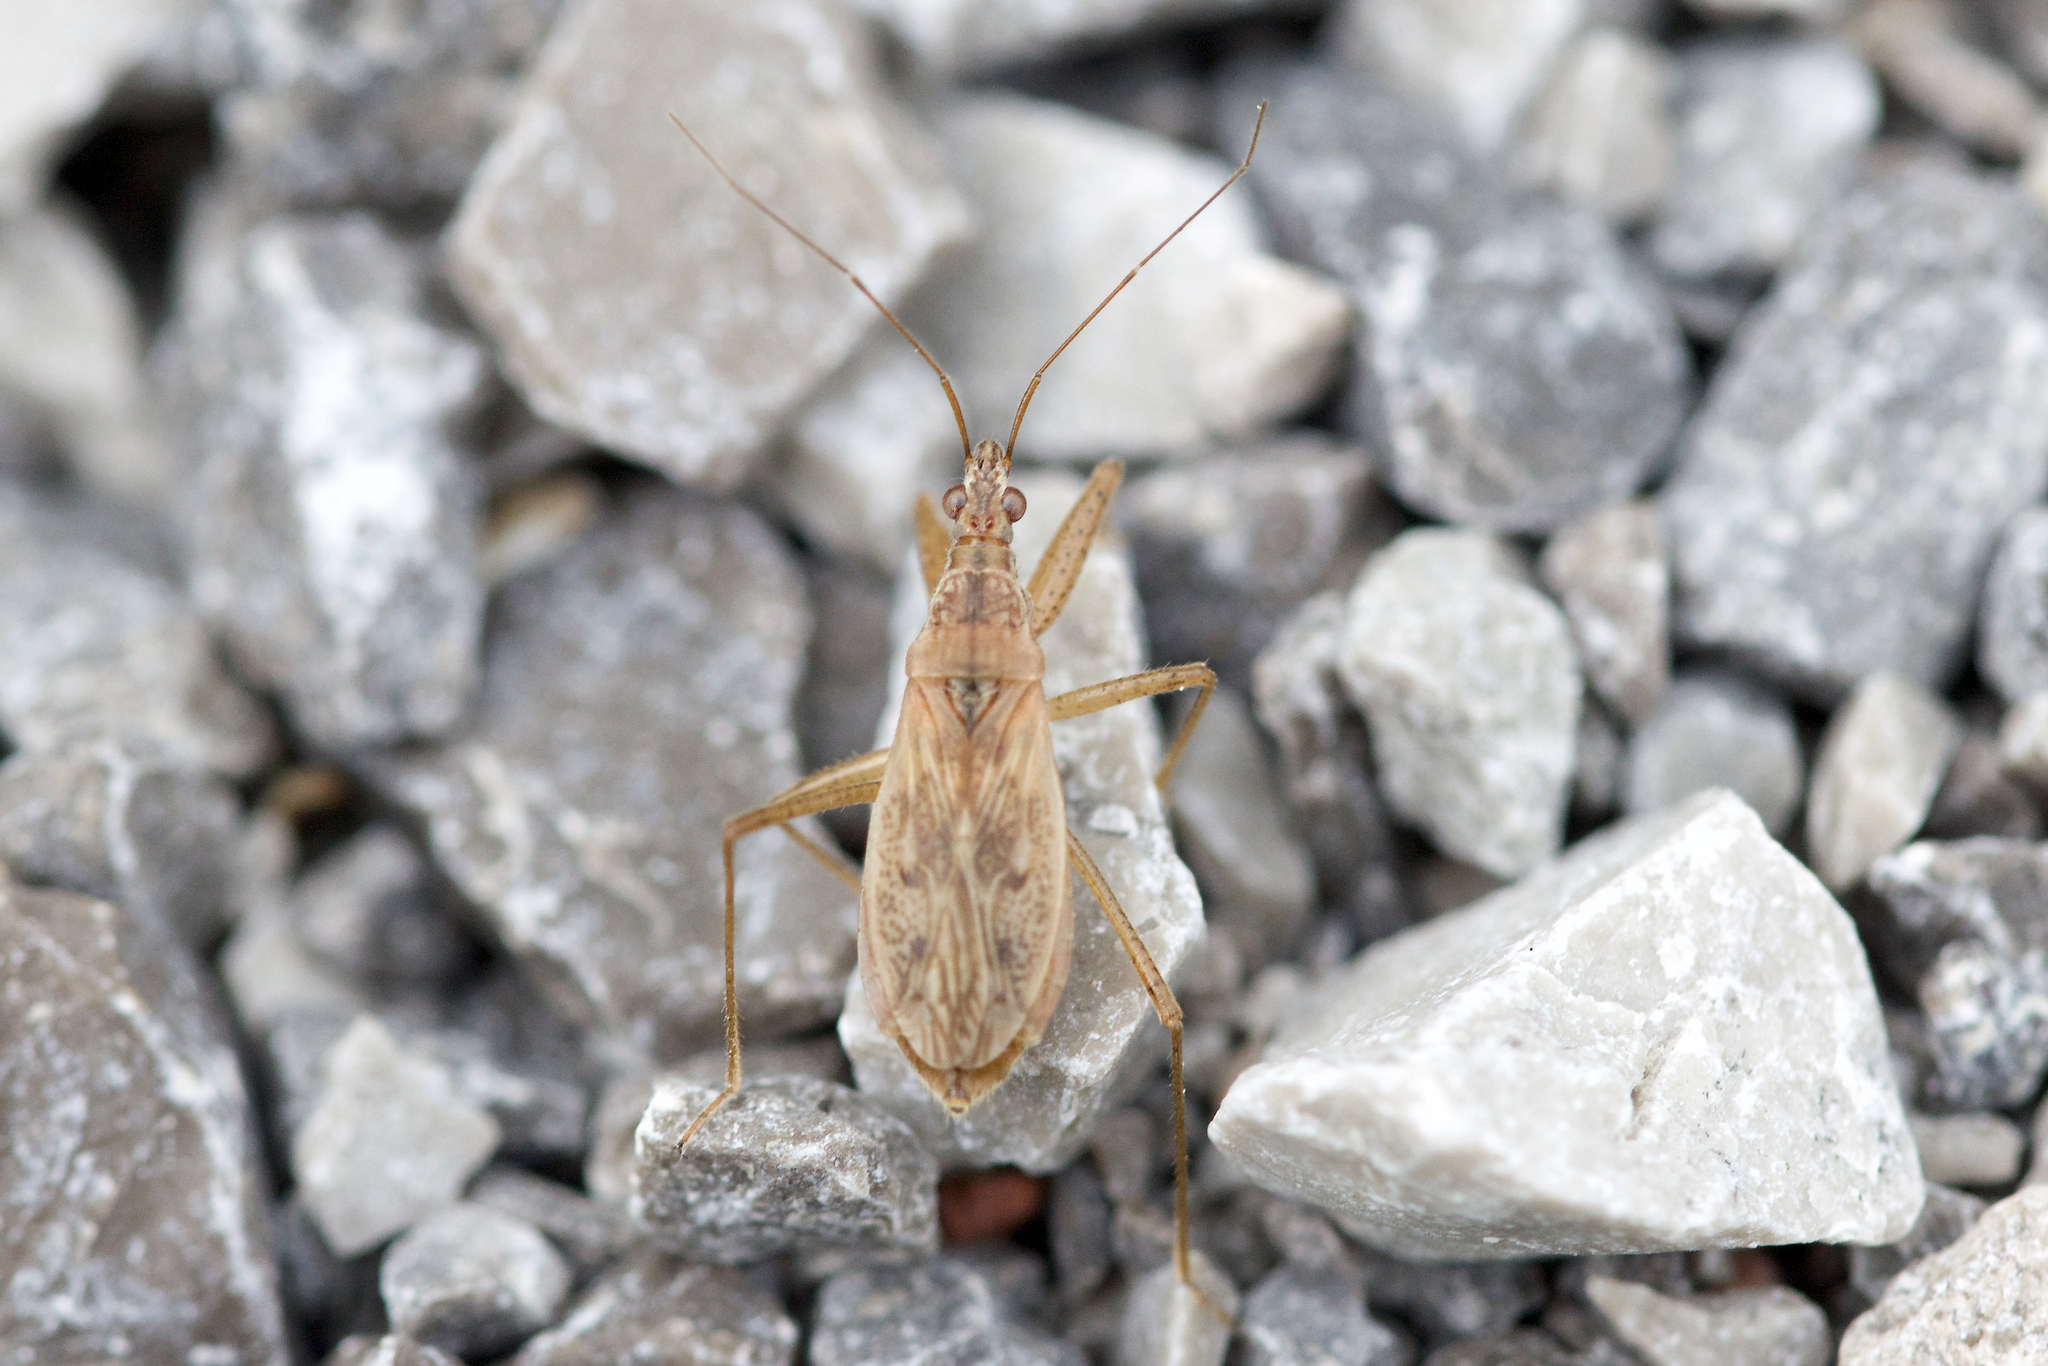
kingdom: Animalia
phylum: Arthropoda
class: Insecta
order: Hemiptera
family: Nabidae
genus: Nabis
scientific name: Nabis rufusculus
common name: Short-winged nabis
